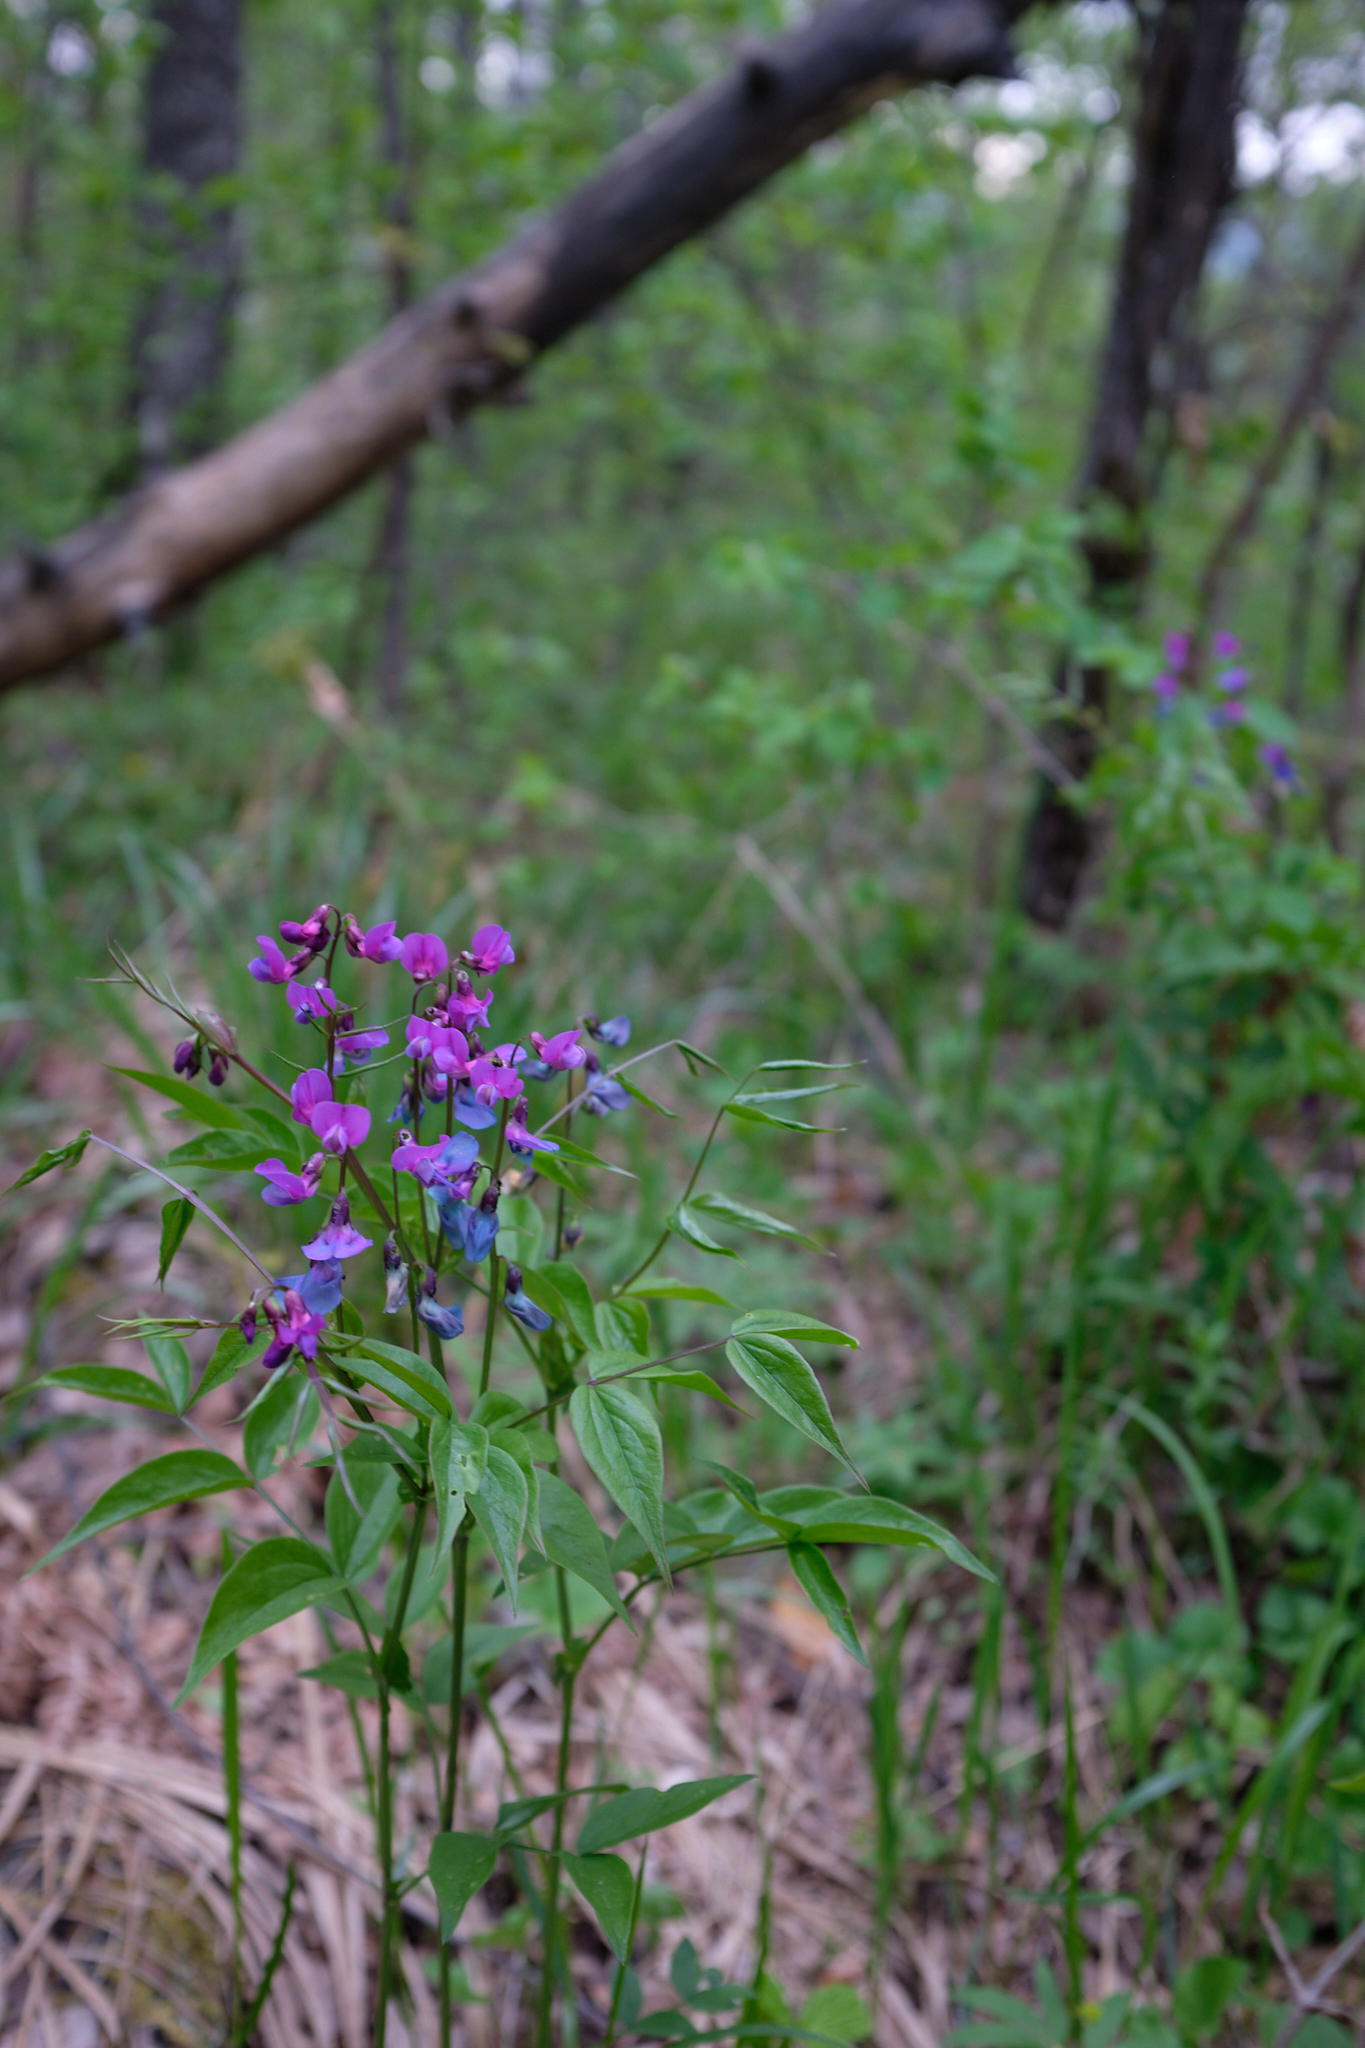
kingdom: Plantae
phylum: Tracheophyta
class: Magnoliopsida
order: Fabales
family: Fabaceae
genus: Lathyrus
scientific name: Lathyrus vernus
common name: Spring pea
